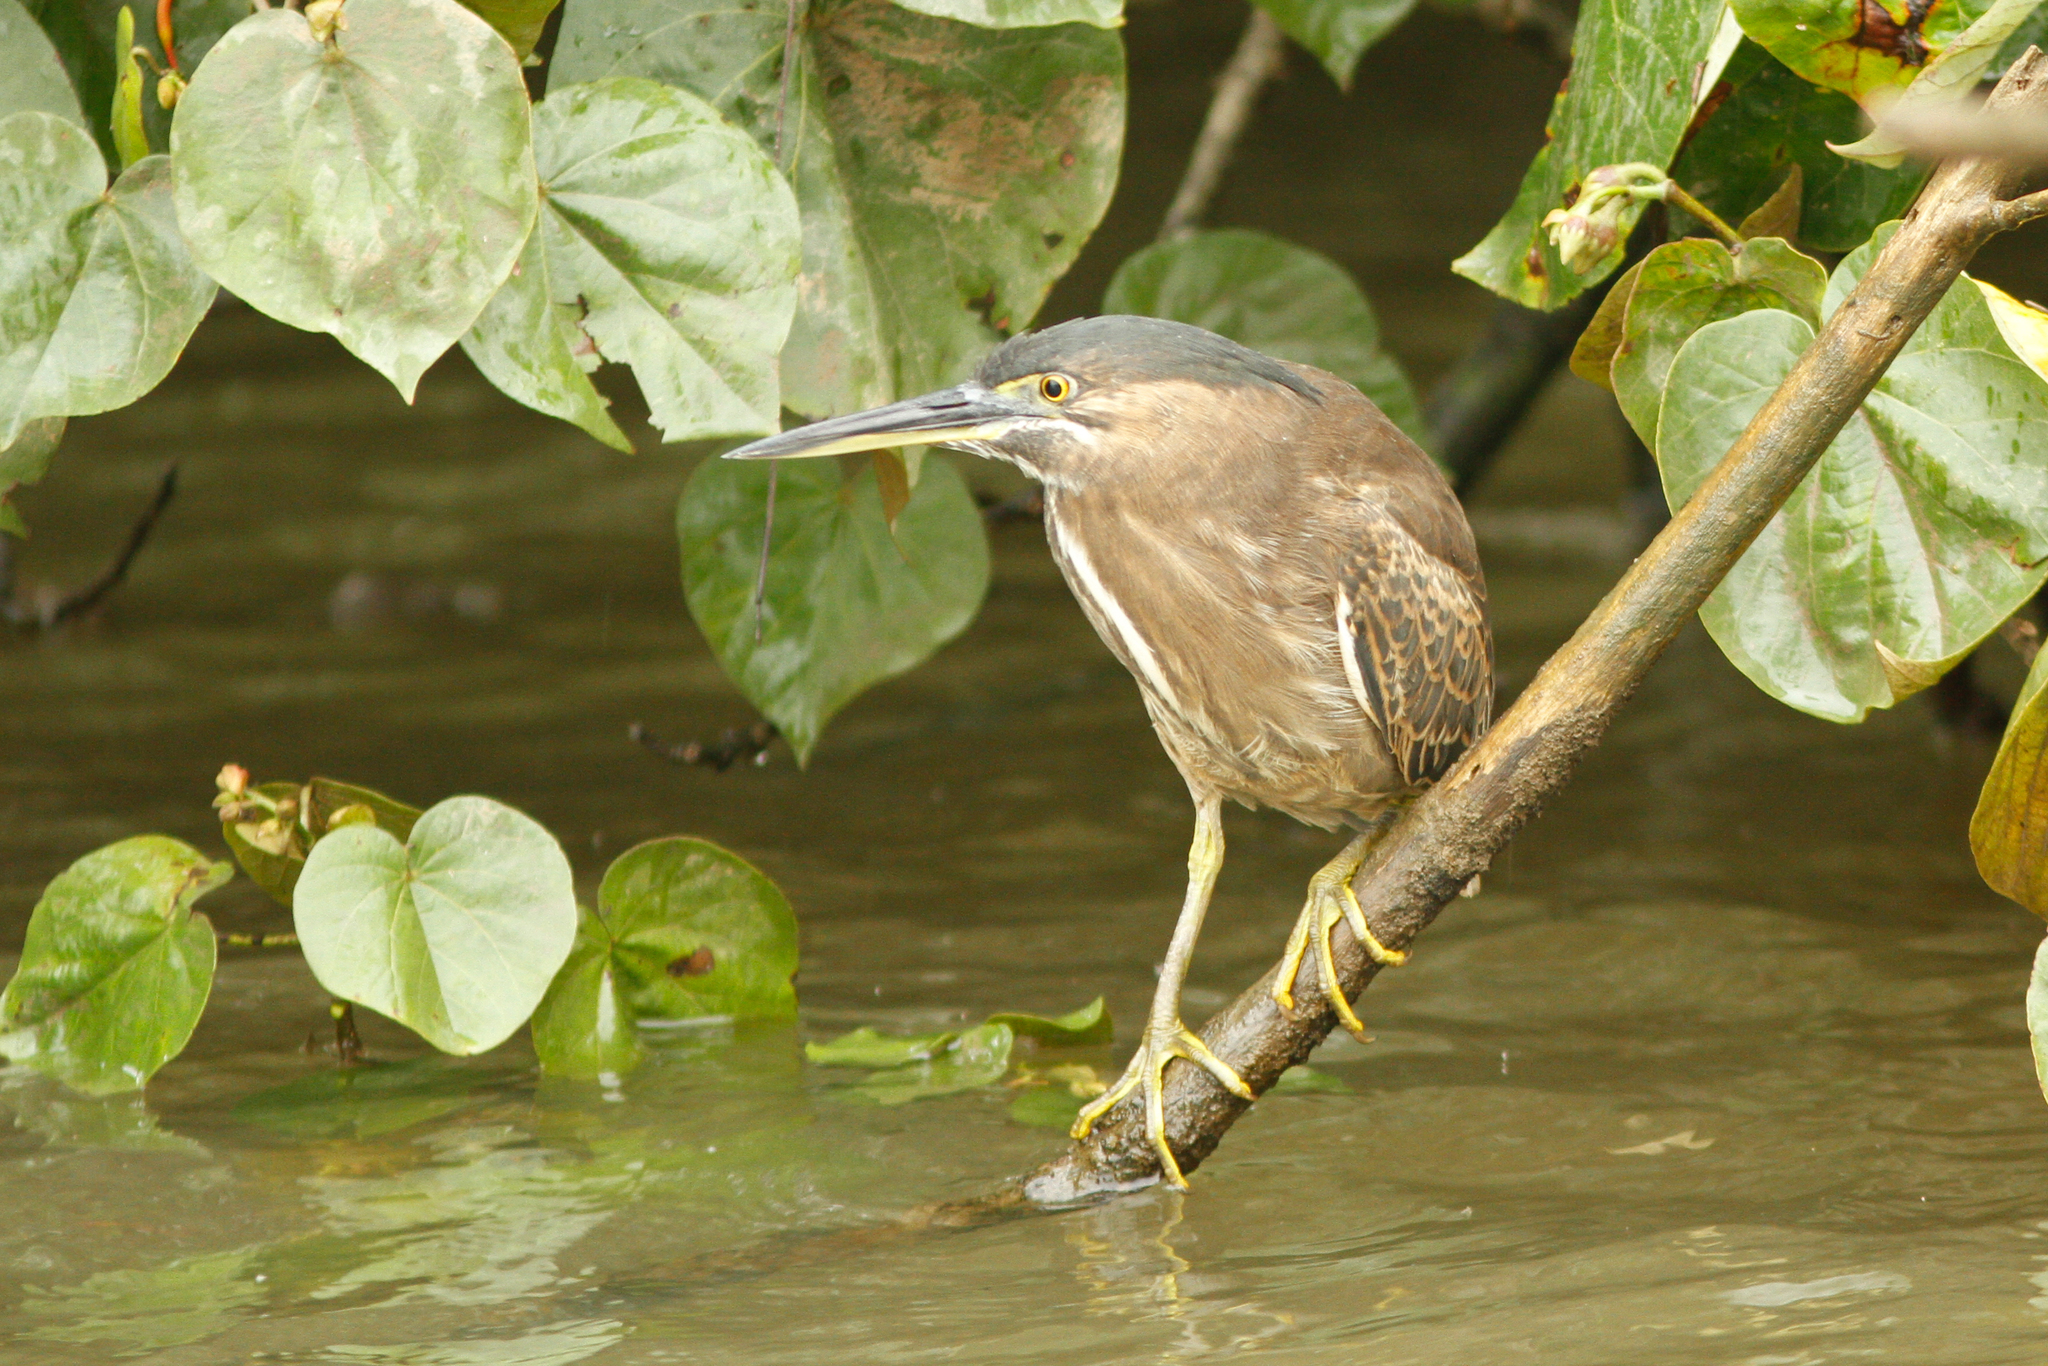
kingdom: Animalia
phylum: Chordata
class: Aves
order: Pelecaniformes
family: Ardeidae
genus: Butorides
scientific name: Butorides striata
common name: Striated heron
